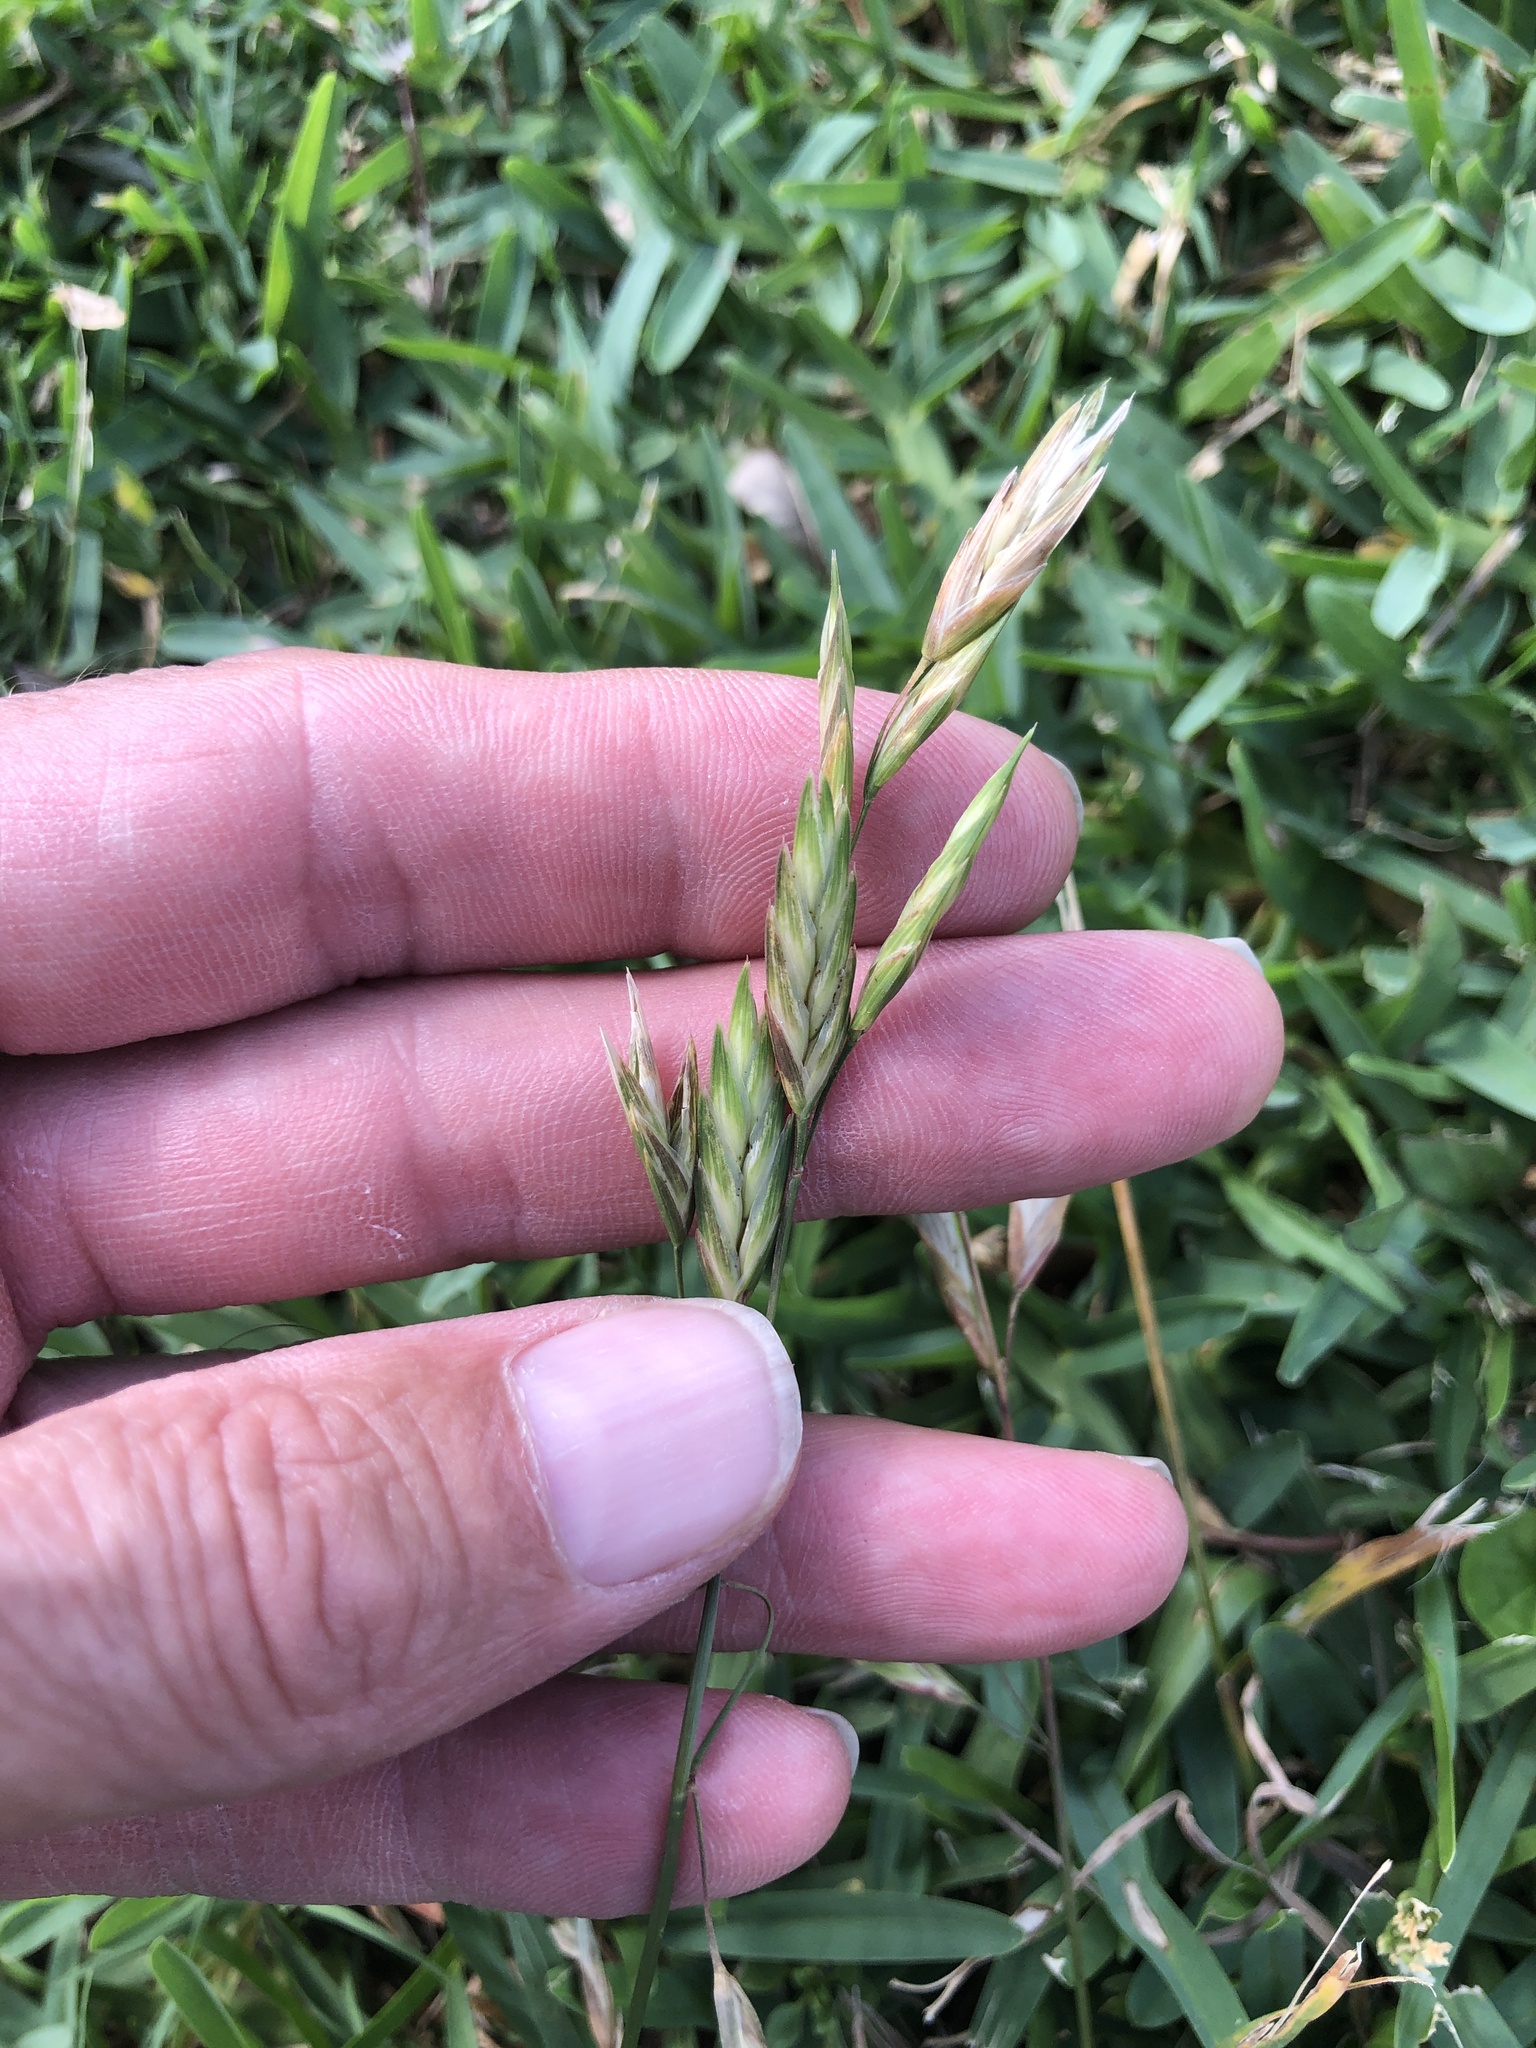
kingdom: Plantae
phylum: Tracheophyta
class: Liliopsida
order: Poales
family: Poaceae
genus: Bromus
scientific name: Bromus catharticus
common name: Rescuegrass
